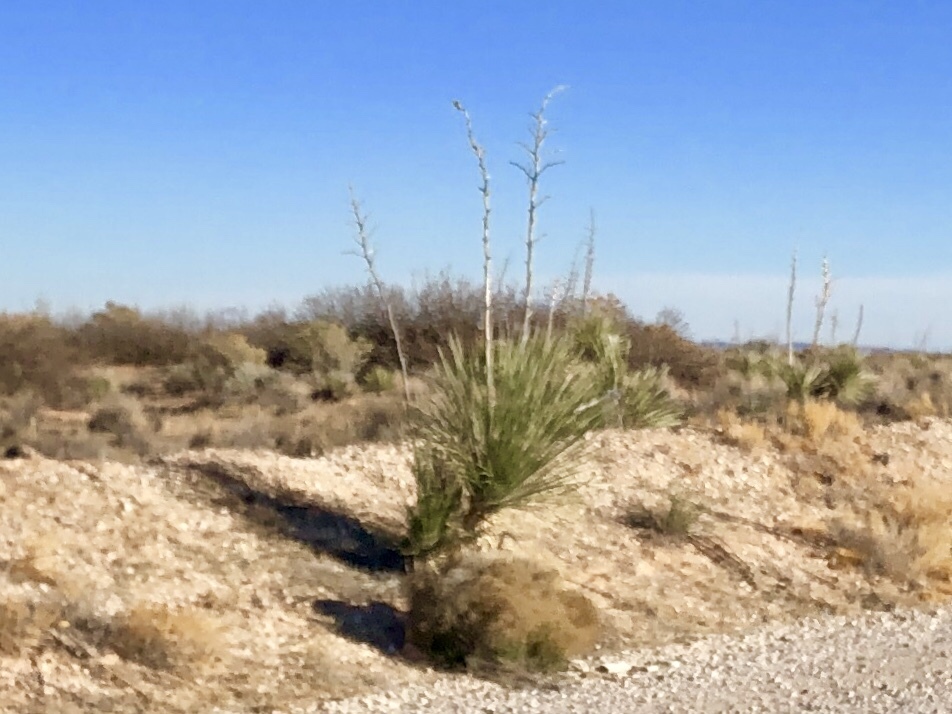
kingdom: Plantae
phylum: Tracheophyta
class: Liliopsida
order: Asparagales
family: Asparagaceae
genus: Yucca
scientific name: Yucca elata
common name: Palmella
